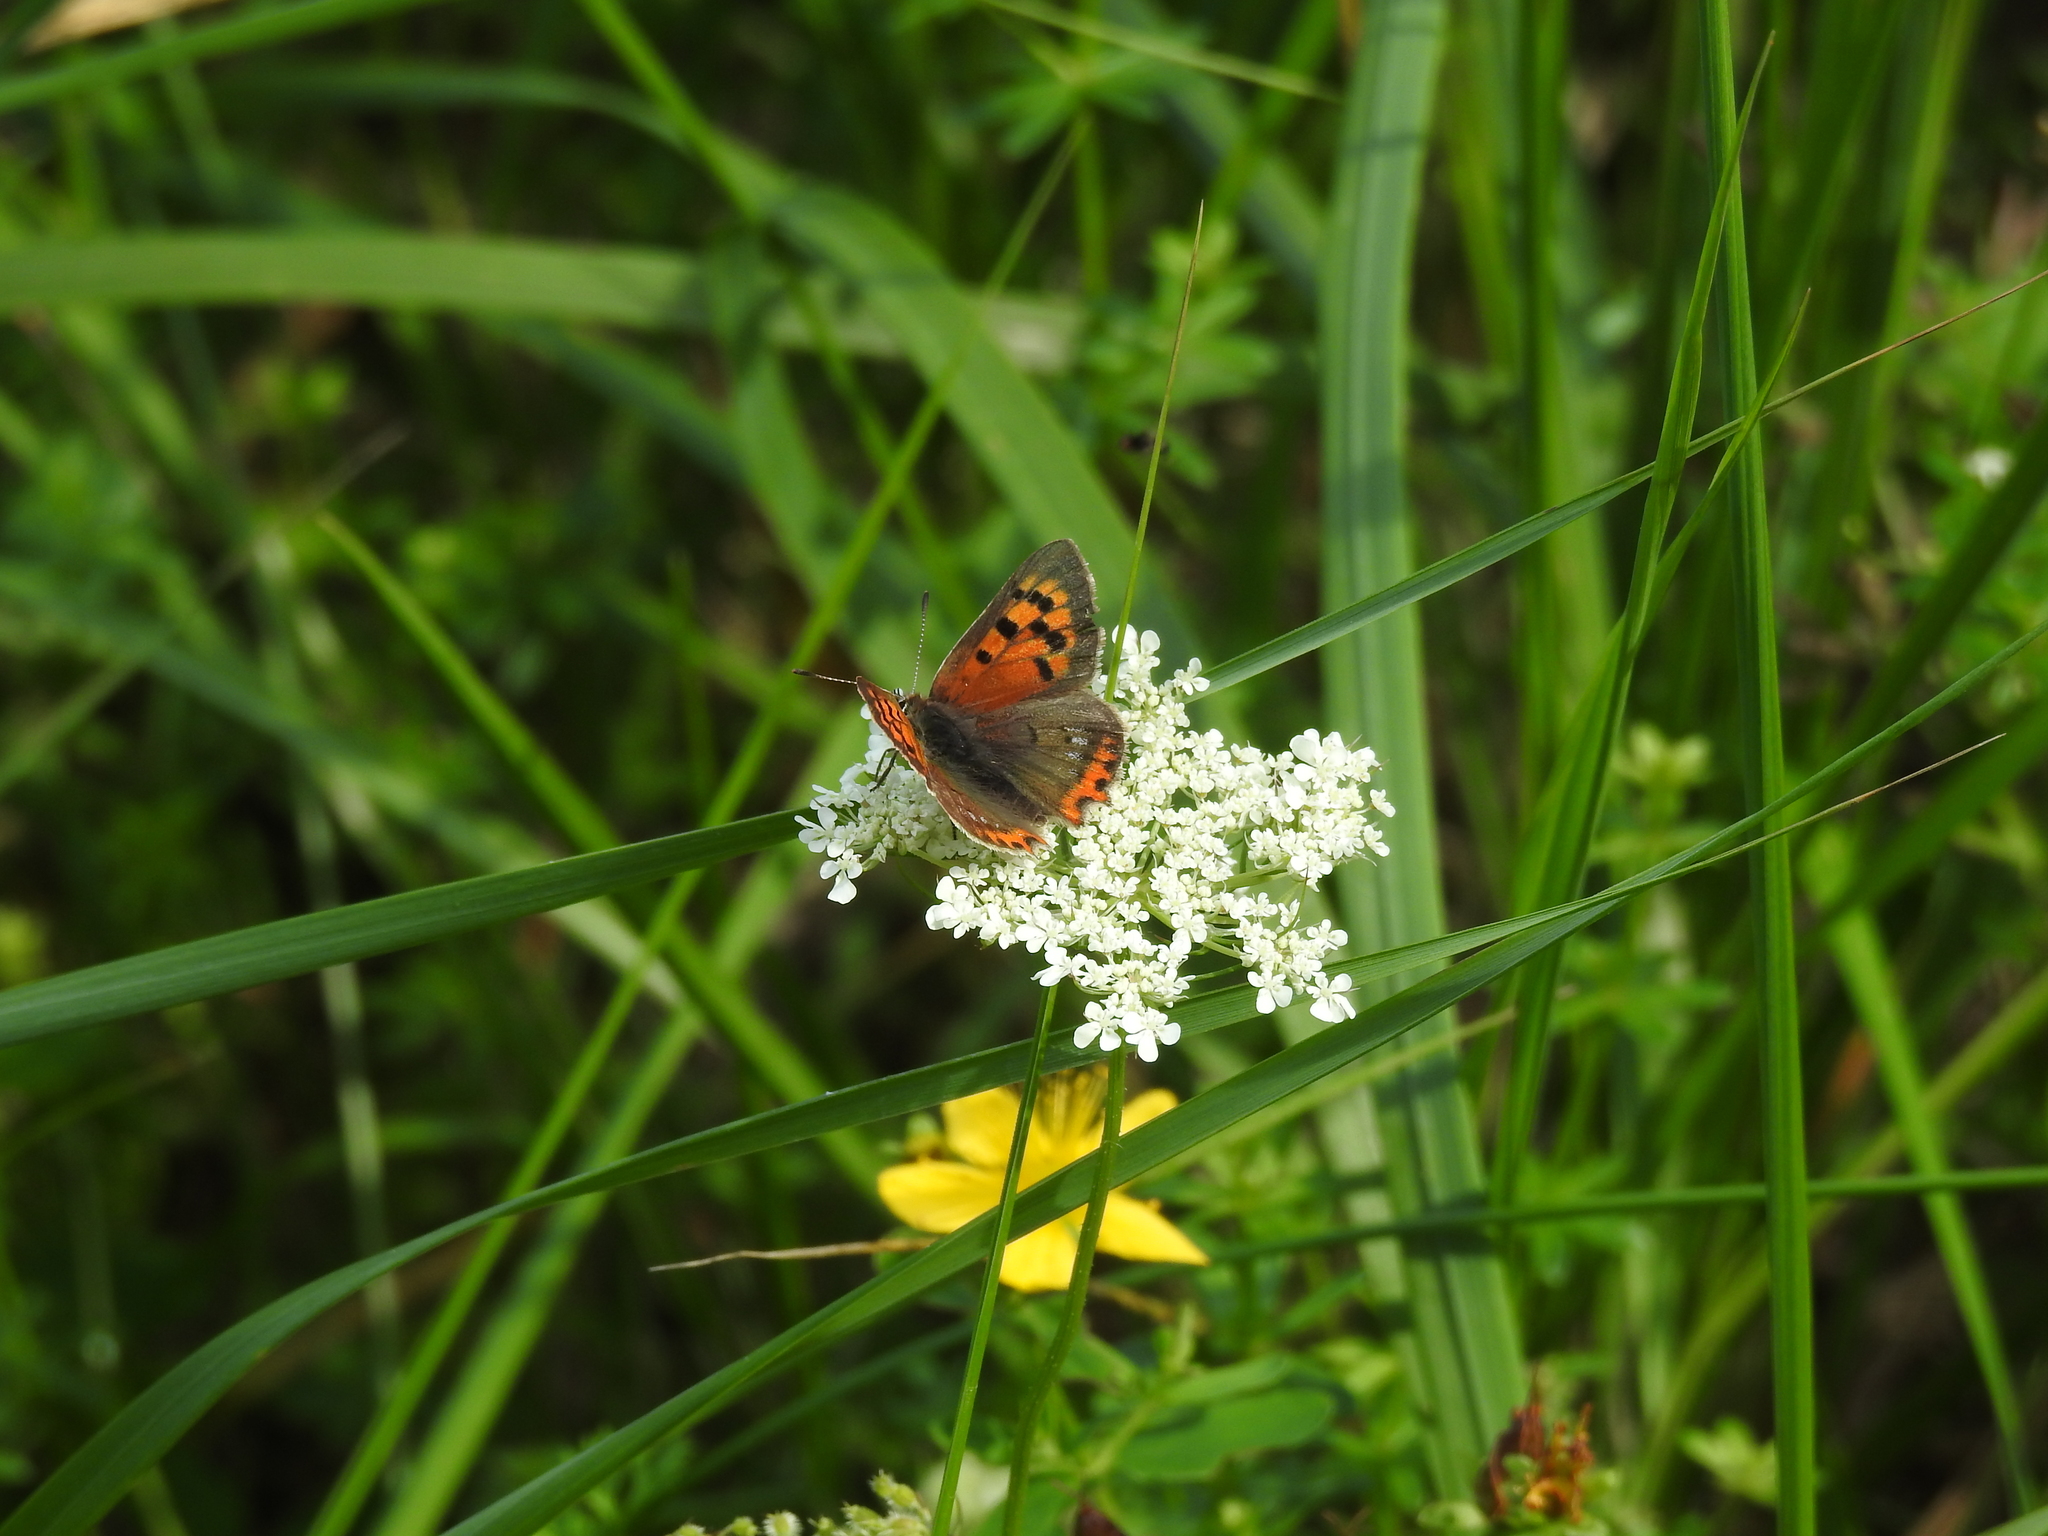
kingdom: Animalia
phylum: Arthropoda
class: Insecta
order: Lepidoptera
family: Lycaenidae
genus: Lycaena
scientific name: Lycaena phlaeas
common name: Small copper
